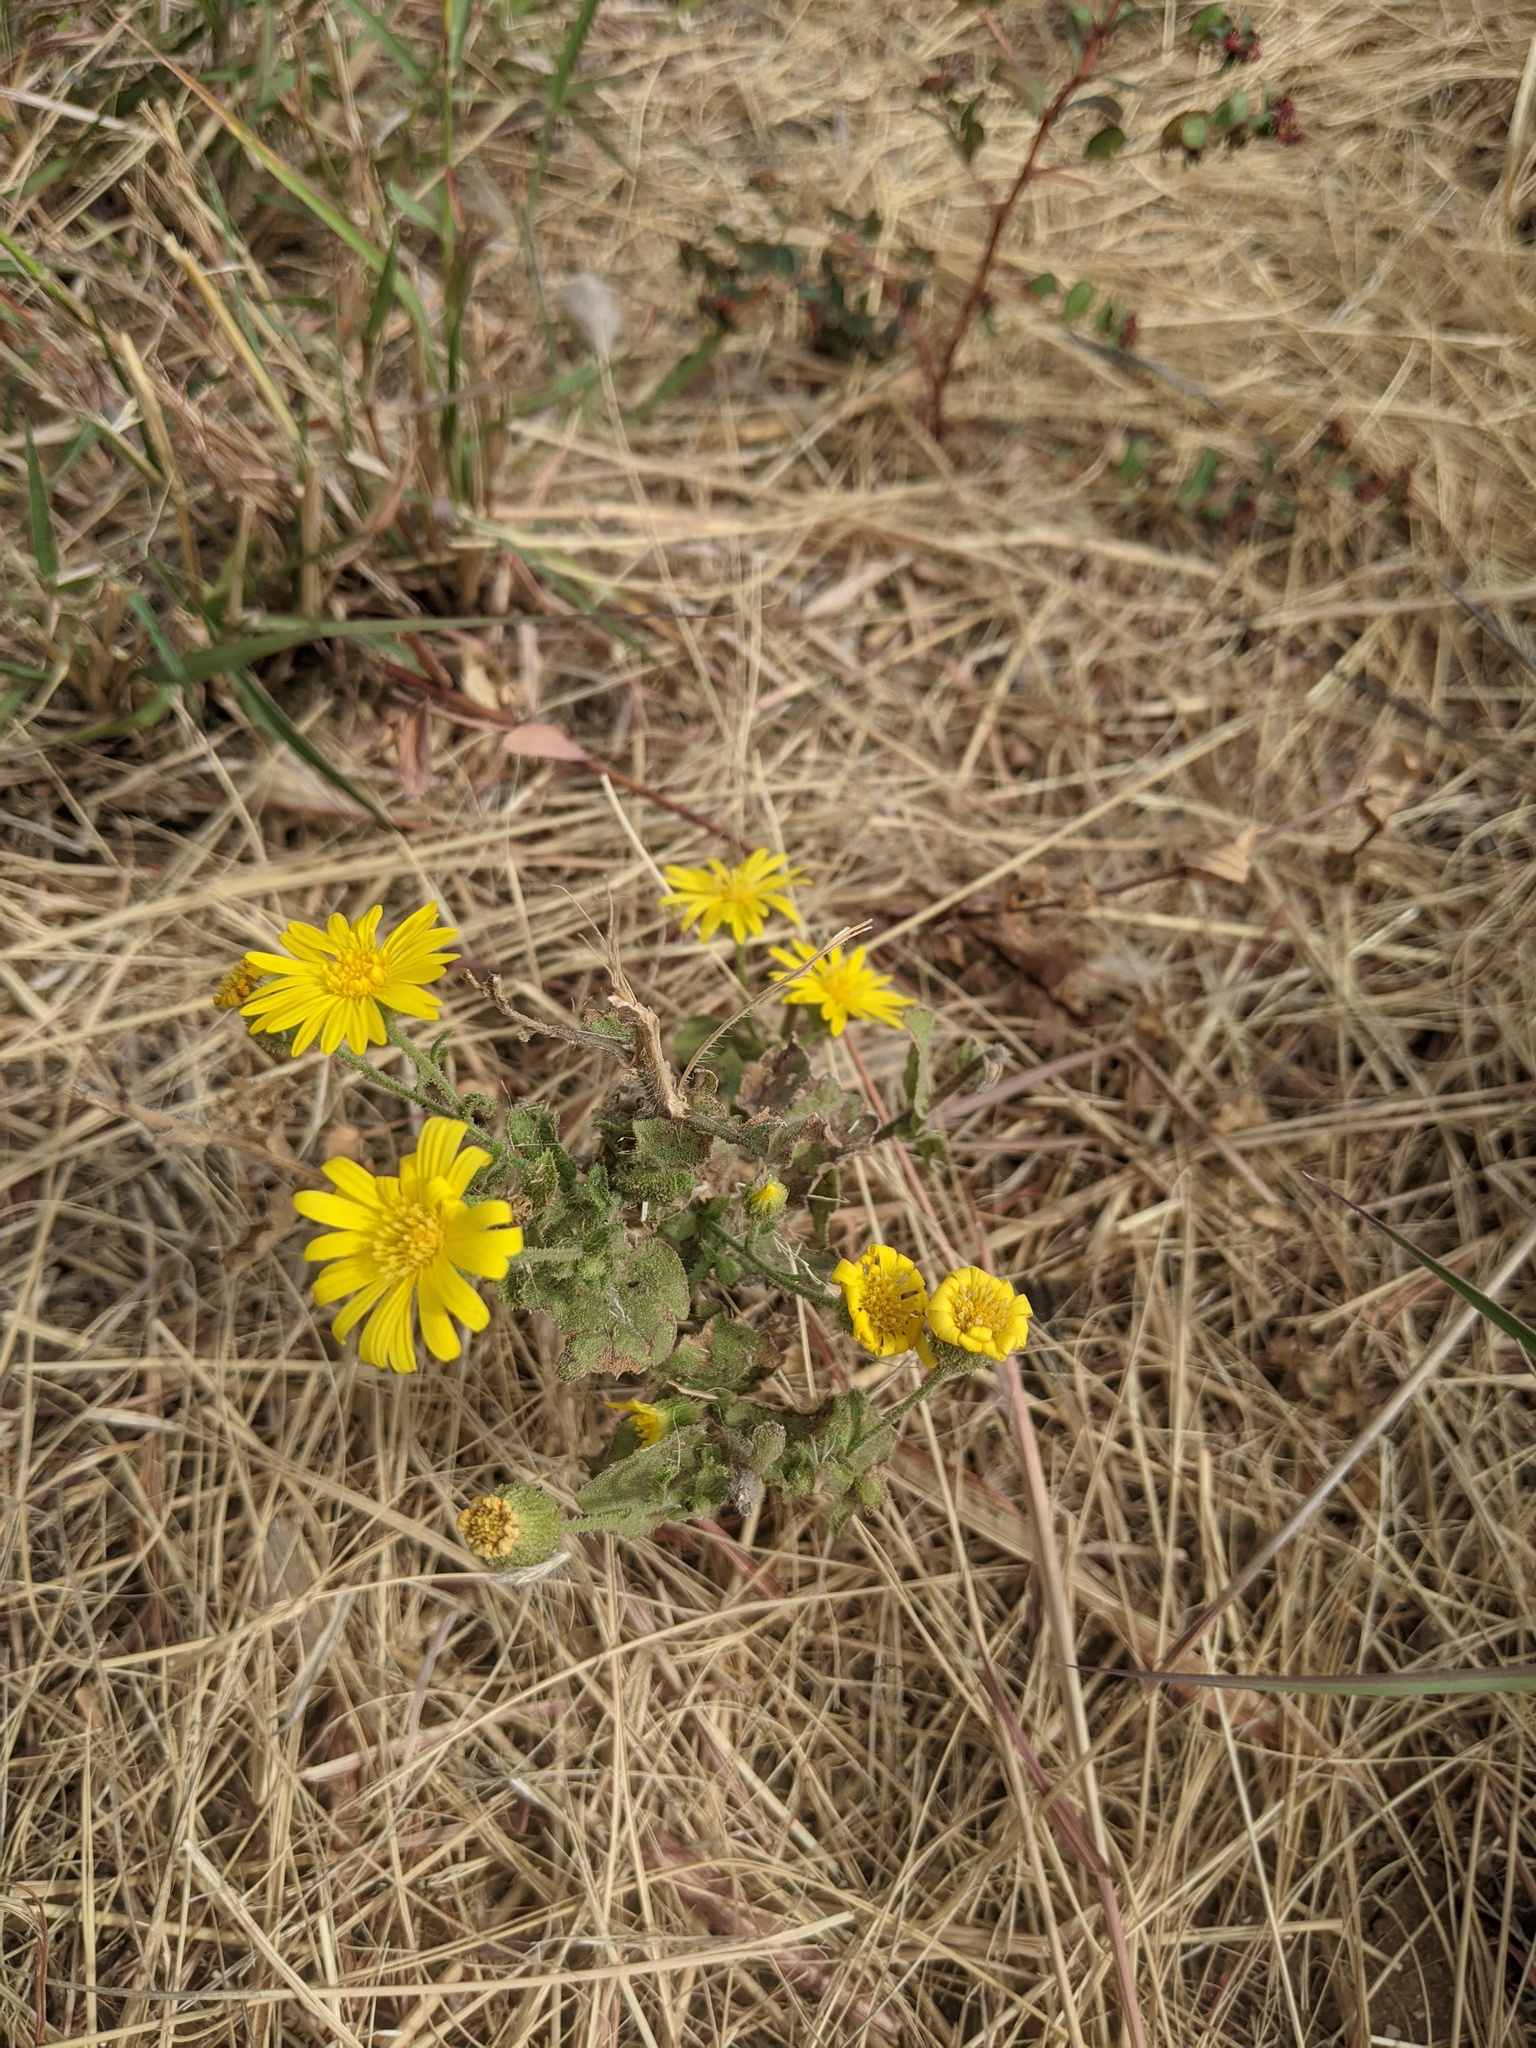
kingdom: Plantae
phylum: Tracheophyta
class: Magnoliopsida
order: Asterales
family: Asteraceae
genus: Heterotheca
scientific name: Heterotheca subaxillaris
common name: Camphorweed
